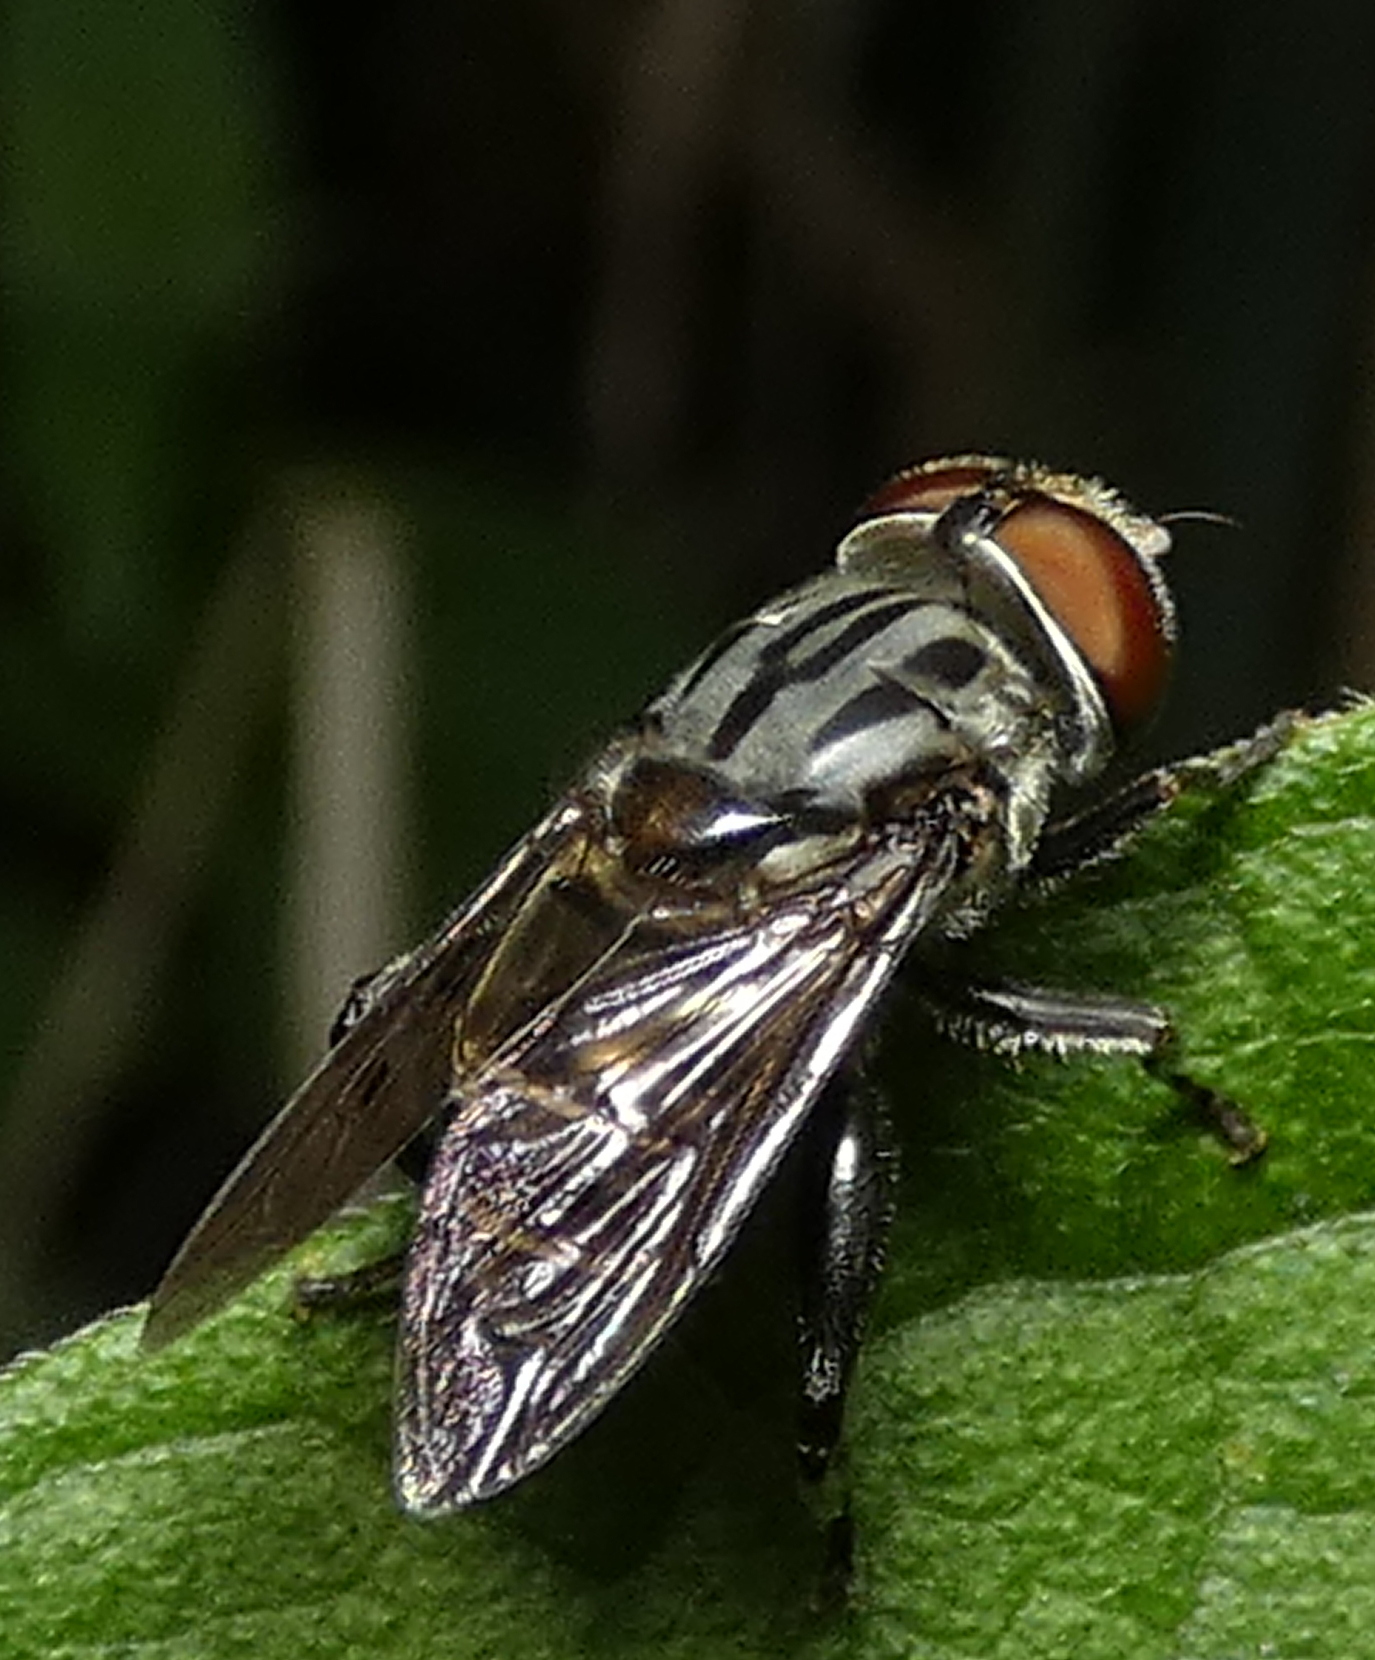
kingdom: Animalia
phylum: Arthropoda
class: Insecta
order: Diptera
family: Syrphidae
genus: Palpada
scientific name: Palpada furcata
